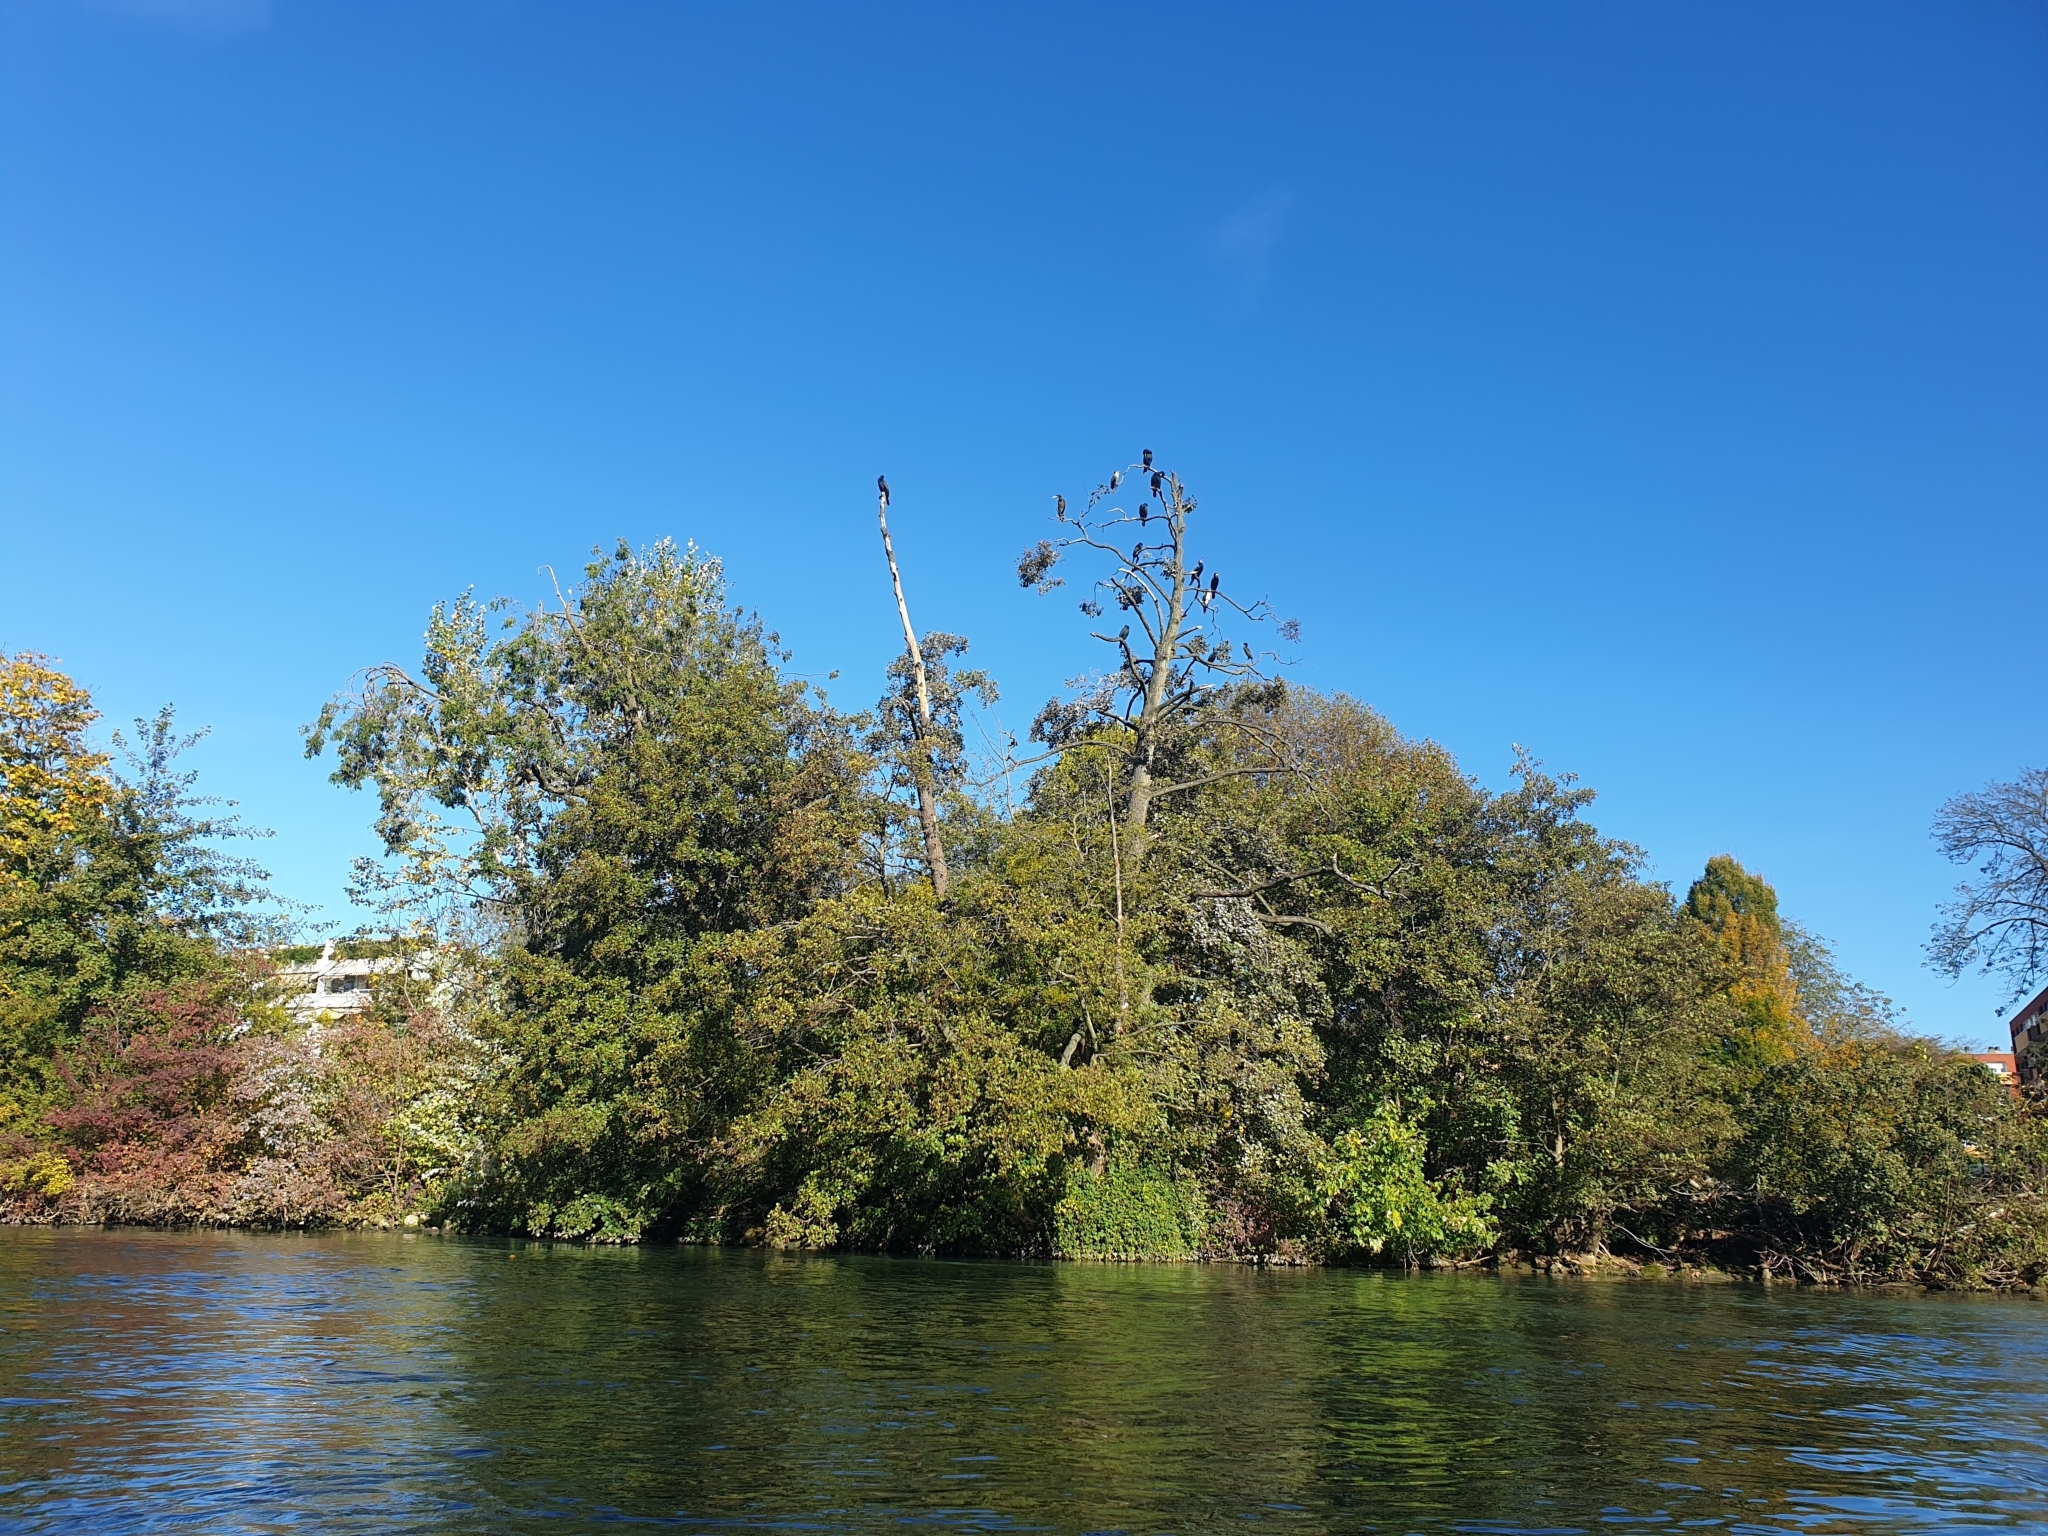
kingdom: Animalia
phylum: Chordata
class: Aves
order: Suliformes
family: Phalacrocoracidae
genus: Phalacrocorax
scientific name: Phalacrocorax carbo
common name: Great cormorant
